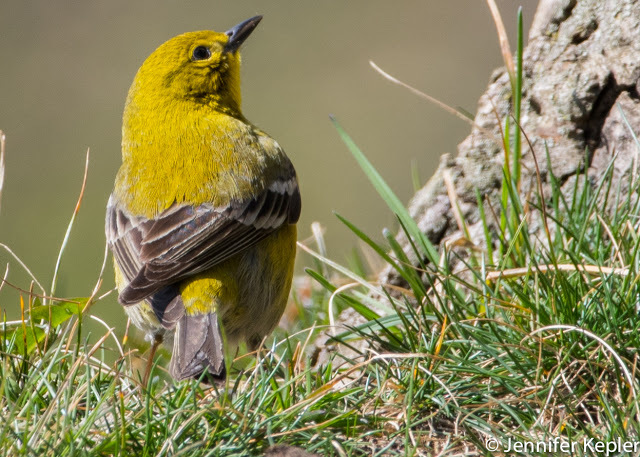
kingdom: Animalia
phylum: Chordata
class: Aves
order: Passeriformes
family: Parulidae
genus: Setophaga
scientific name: Setophaga pinus
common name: Pine warbler
